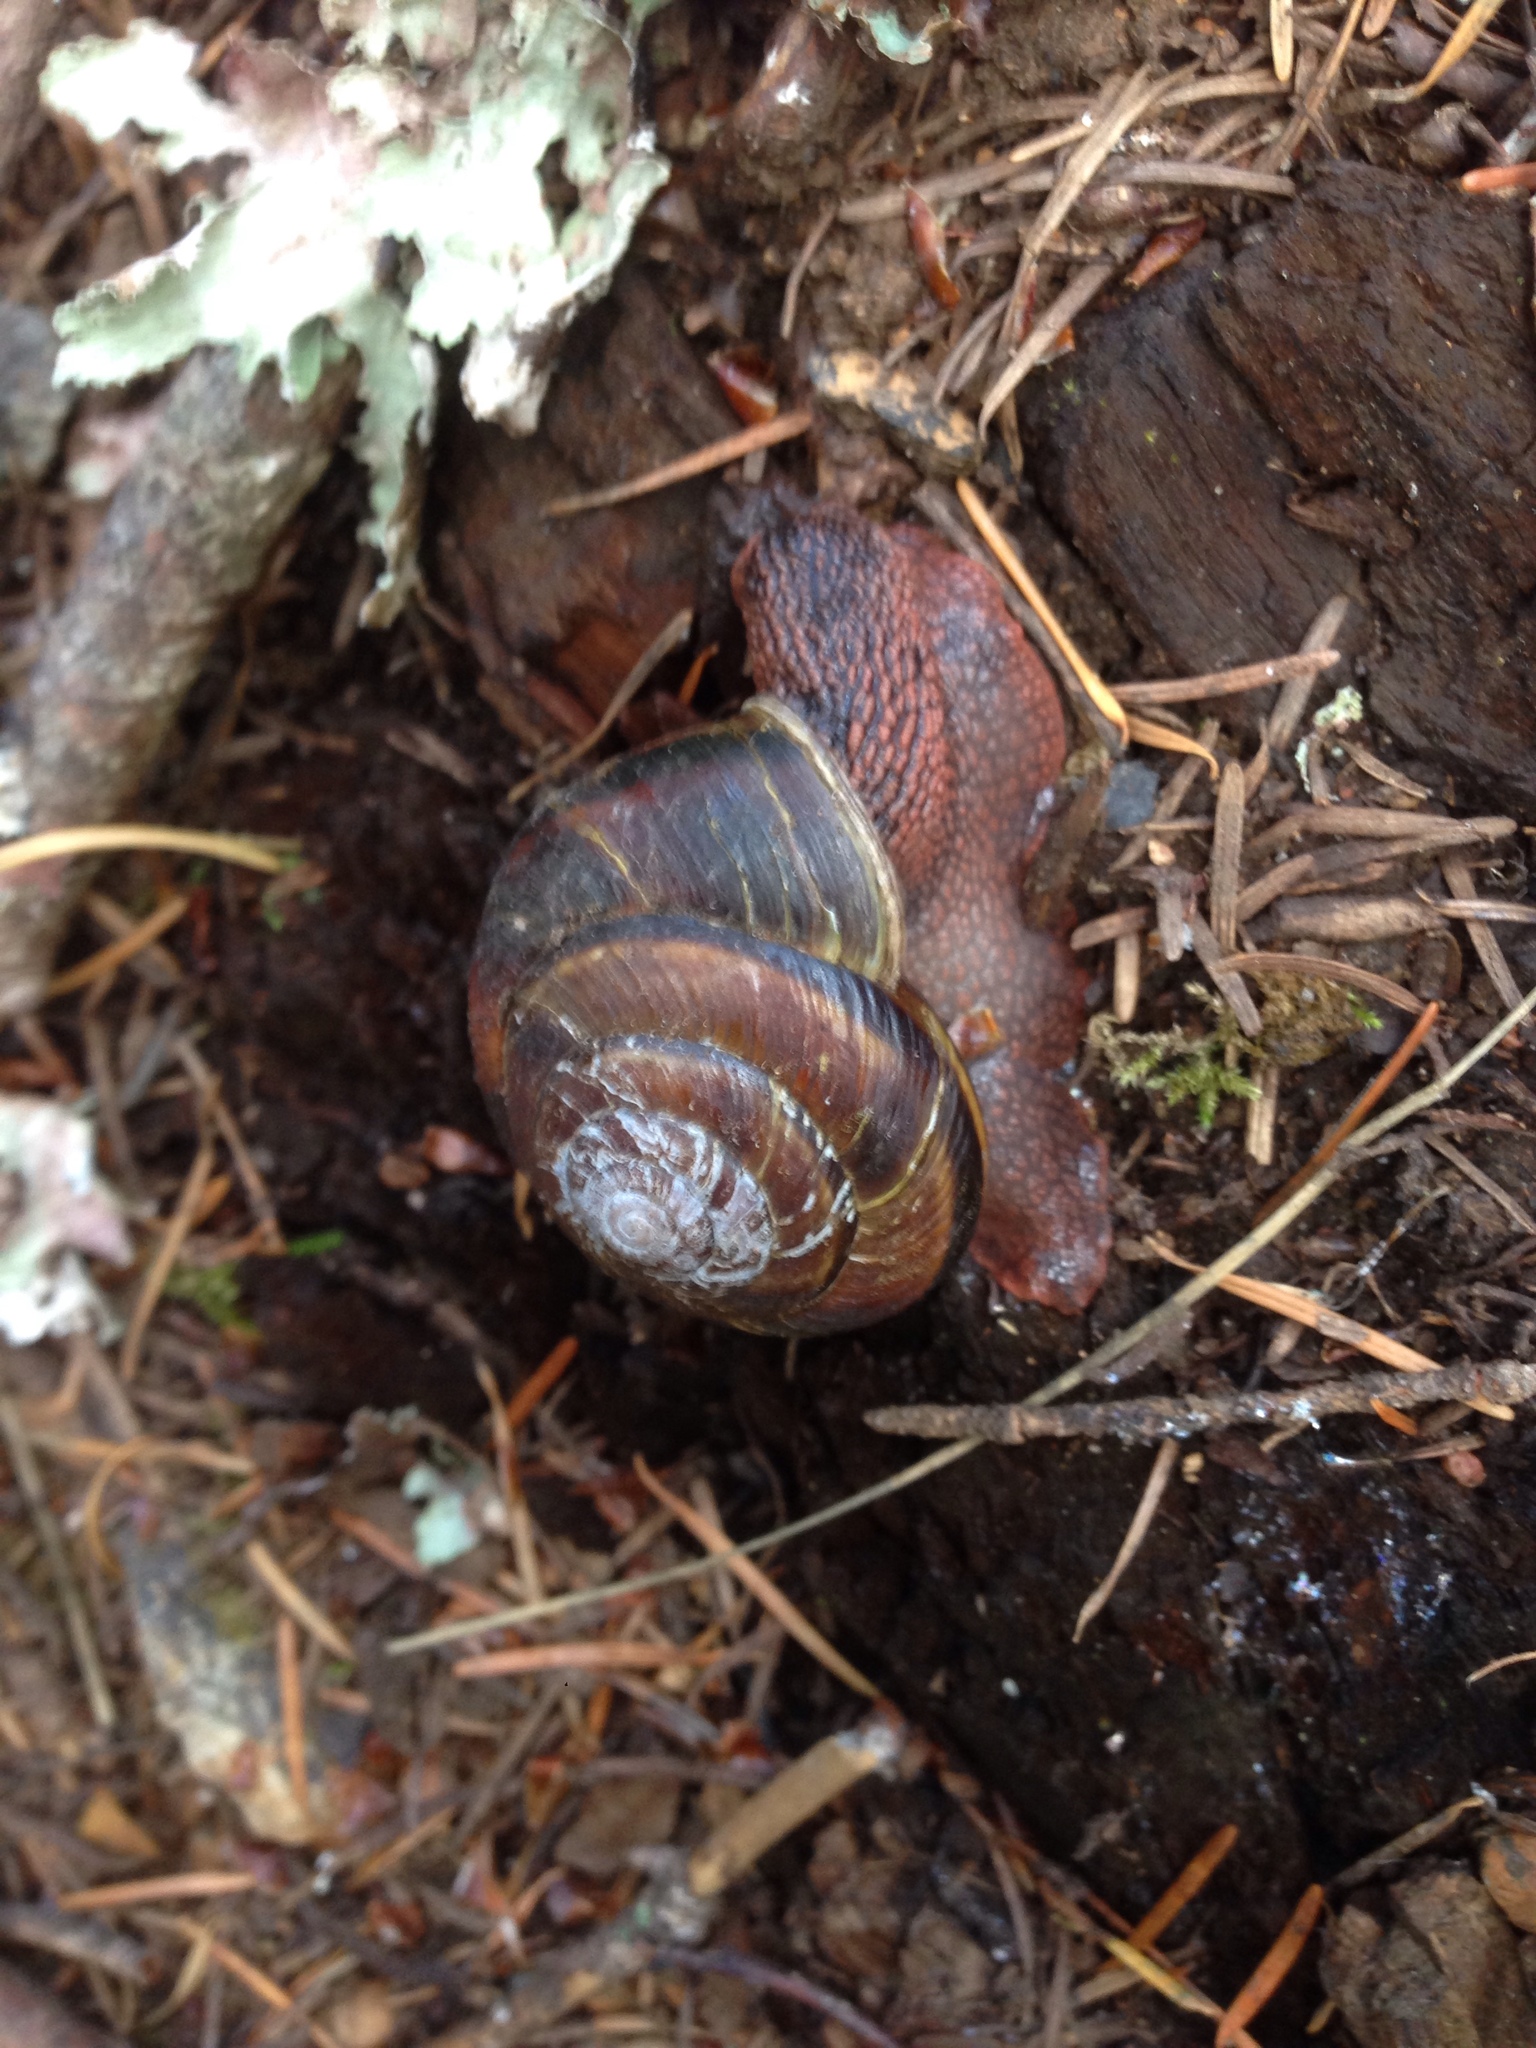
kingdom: Animalia
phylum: Mollusca
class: Gastropoda
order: Stylommatophora
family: Xanthonychidae
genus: Monadenia
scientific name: Monadenia fidelis
